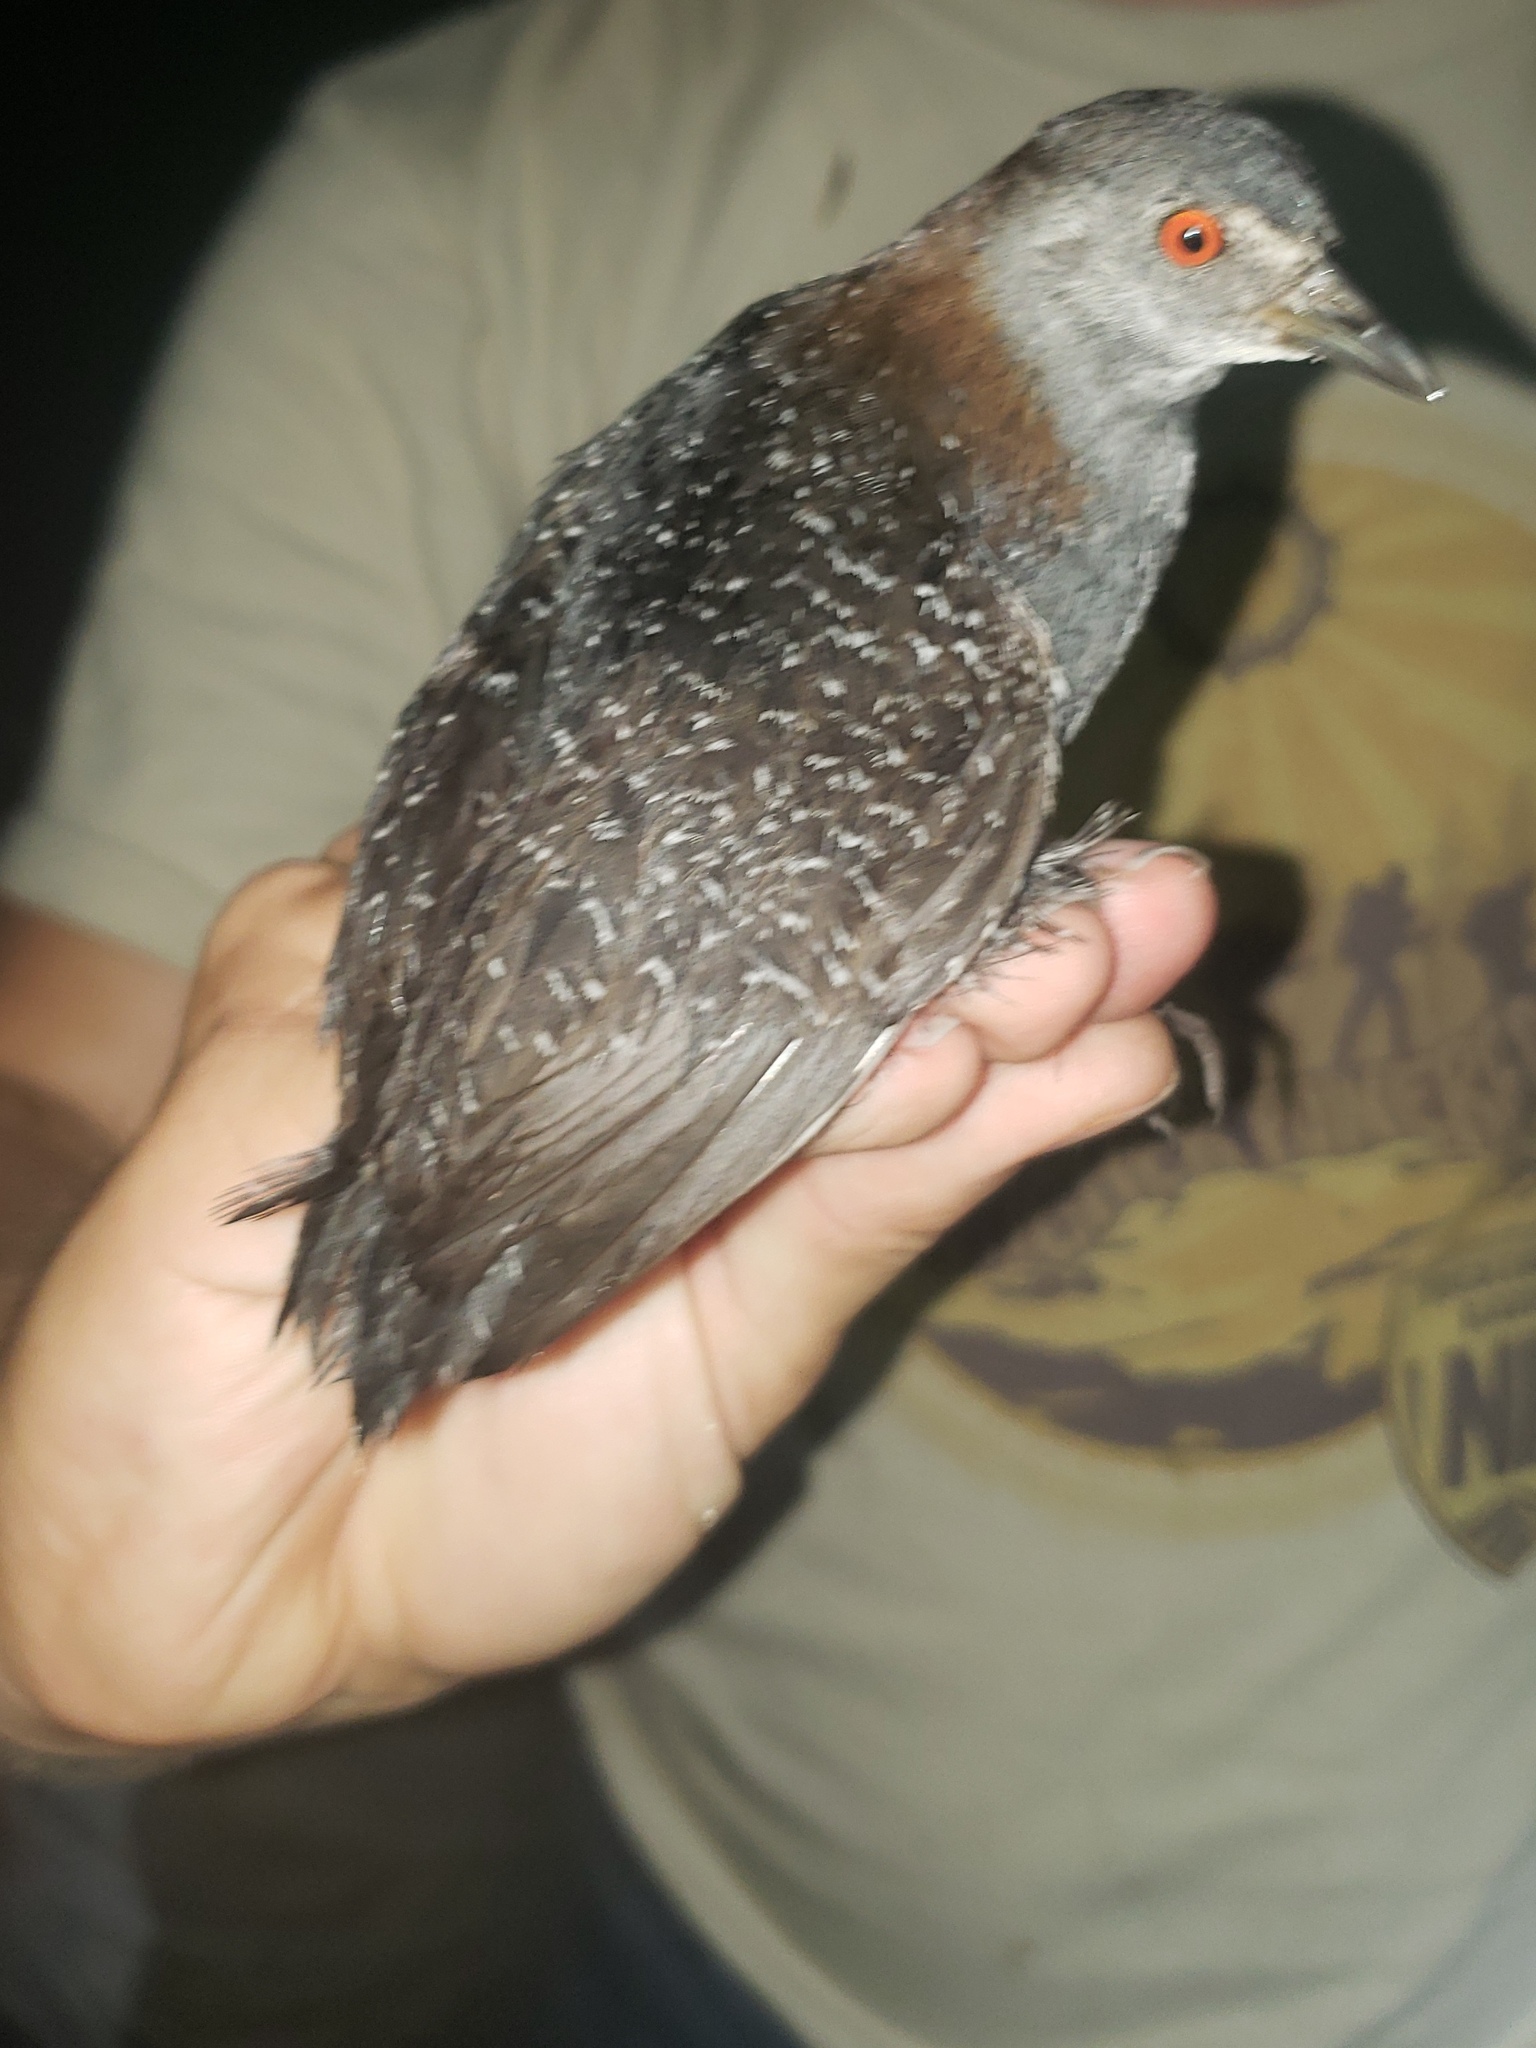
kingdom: Animalia
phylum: Chordata
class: Aves
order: Gruiformes
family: Rallidae
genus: Laterallus
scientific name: Laterallus jamaicensis
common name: Black rail
